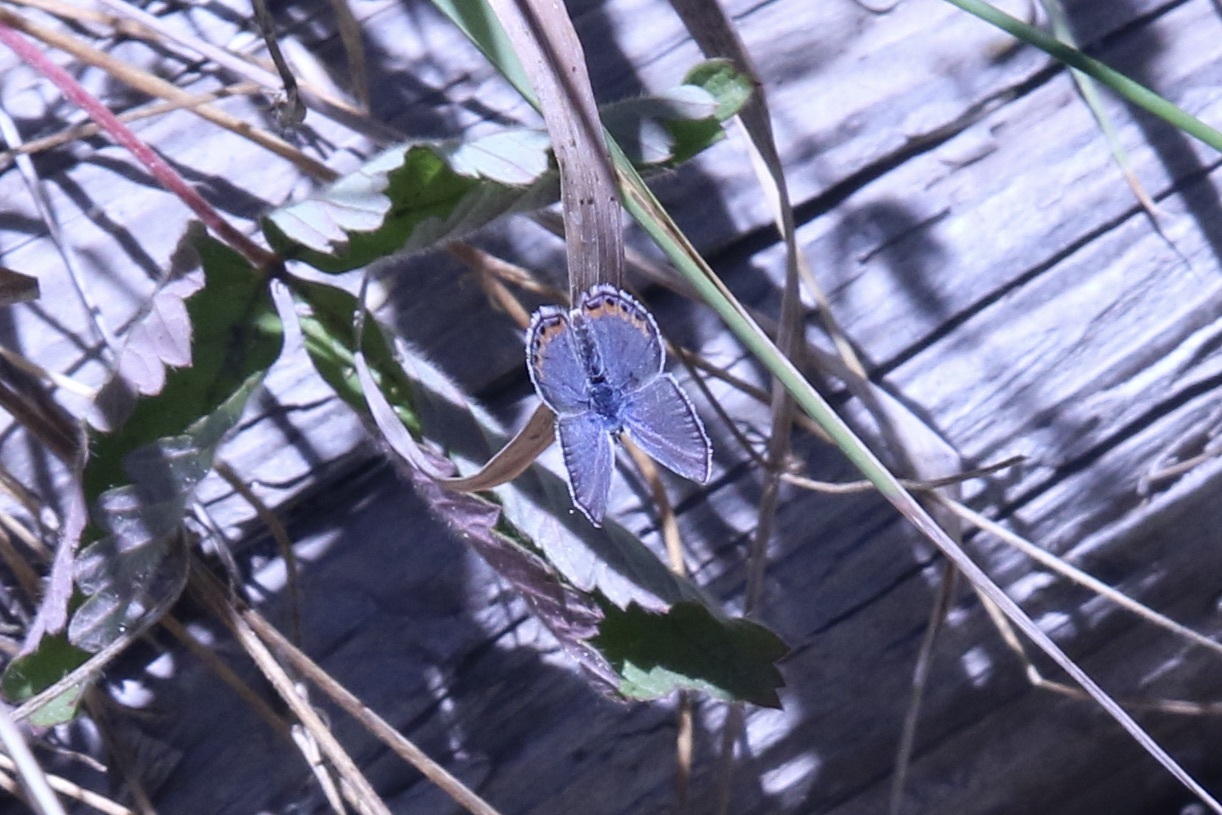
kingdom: Animalia
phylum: Arthropoda
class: Insecta
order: Lepidoptera
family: Lycaenidae
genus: Icaricia
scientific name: Icaricia acmon
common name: Acmon blue
